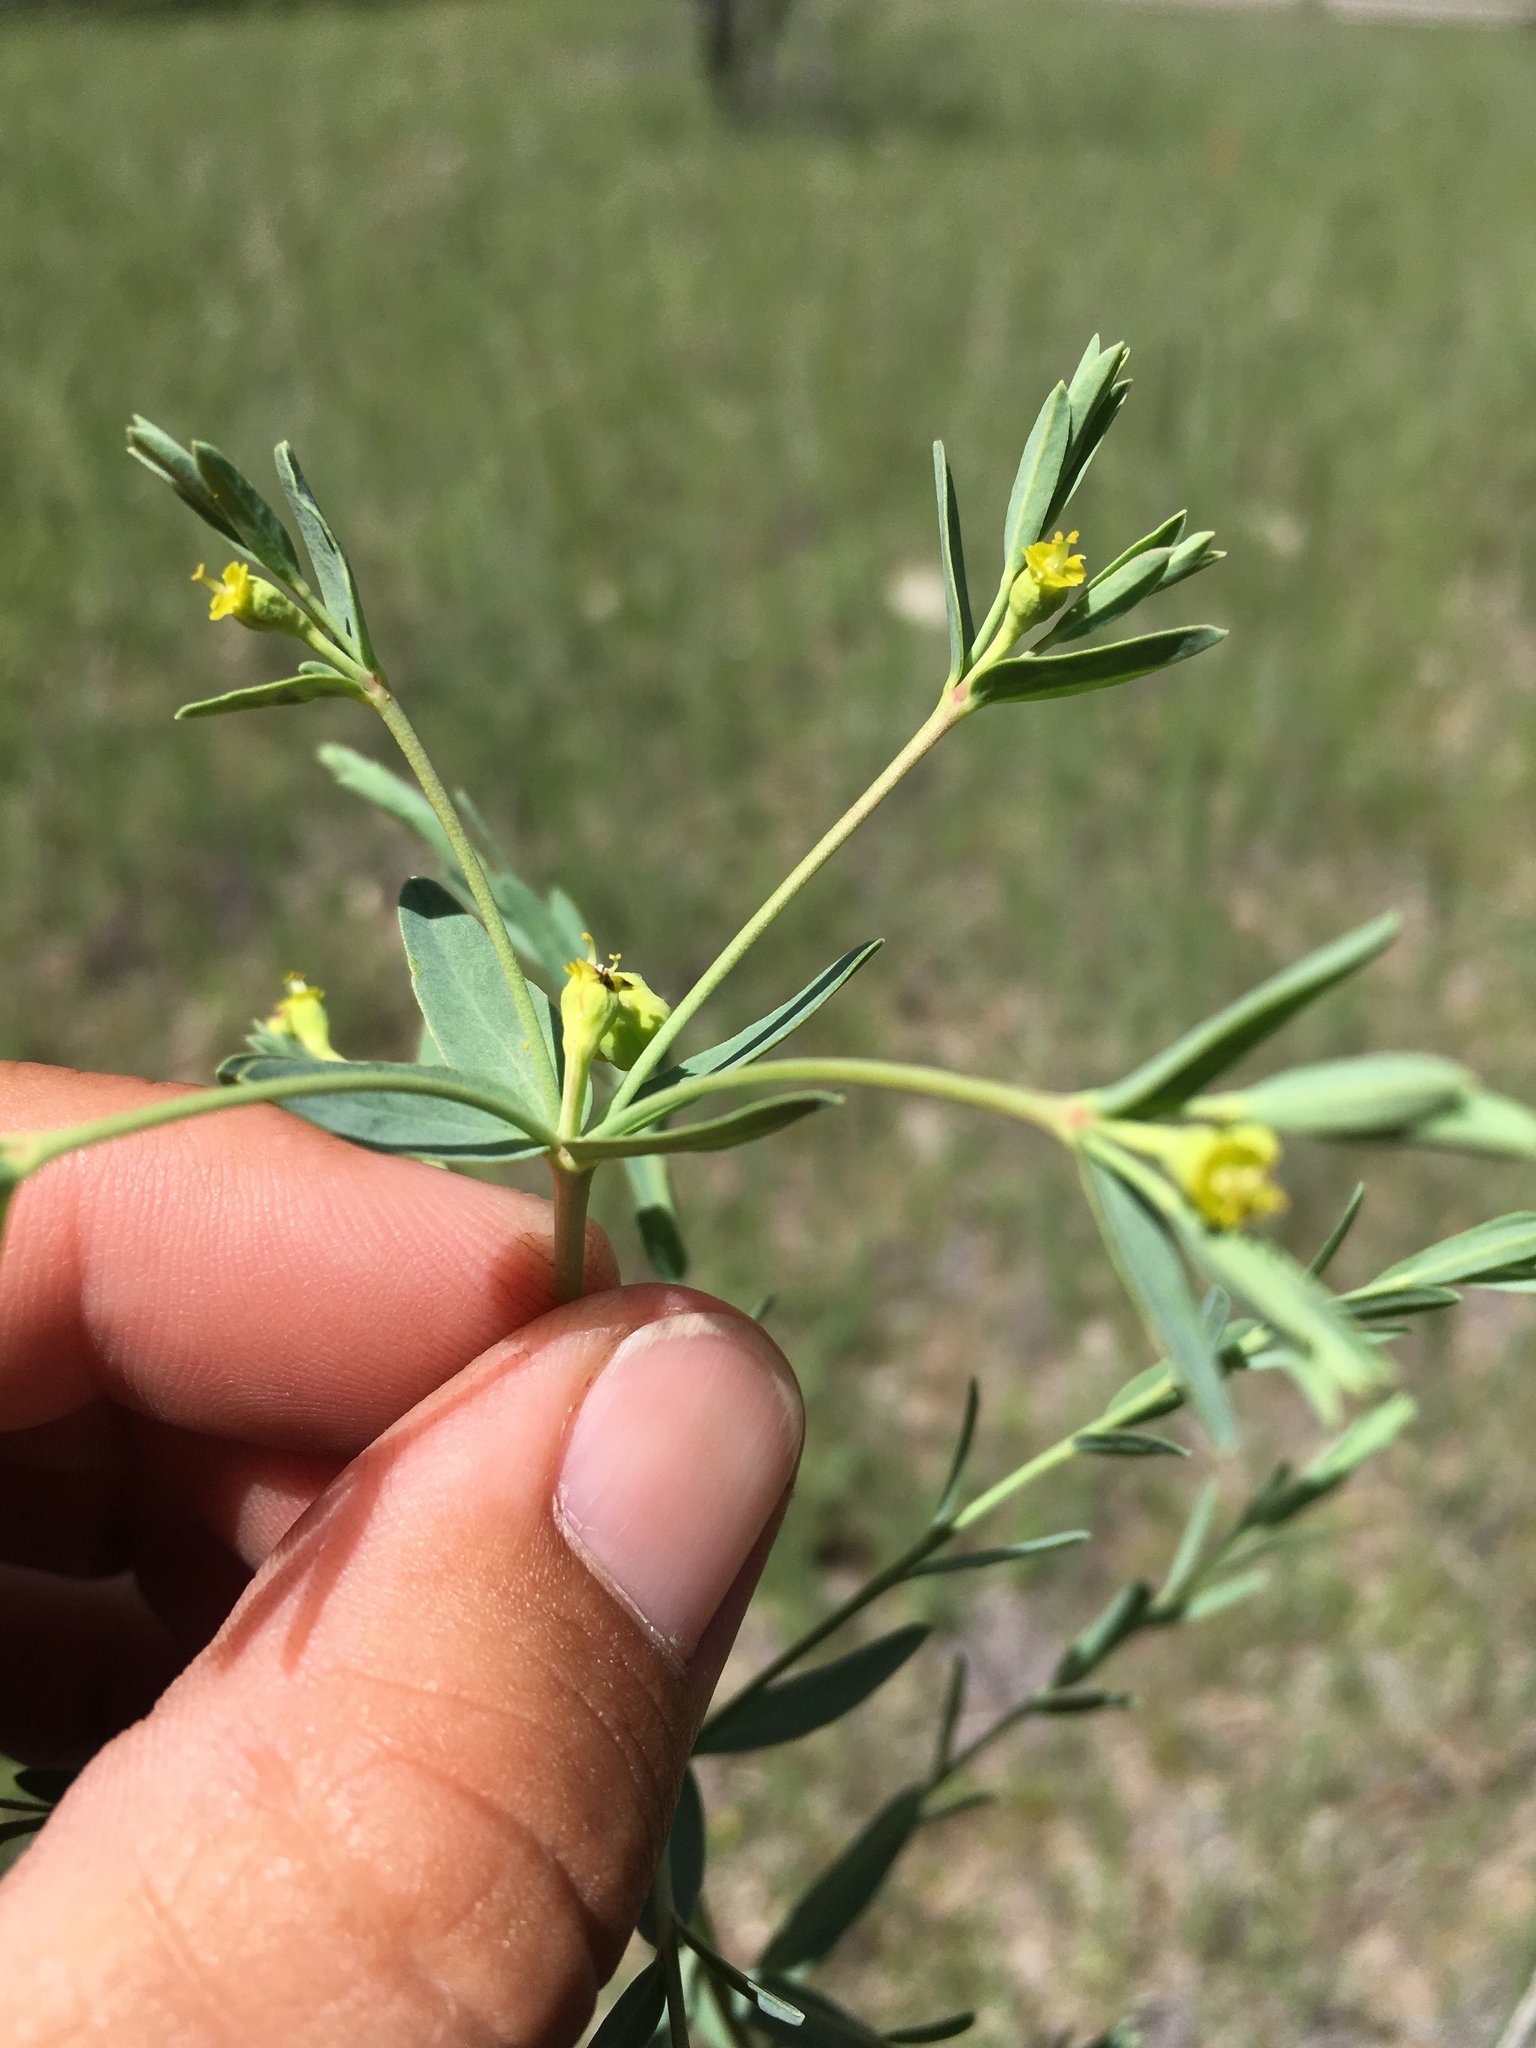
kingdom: Plantae
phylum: Tracheophyta
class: Magnoliopsida
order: Malpighiales
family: Euphorbiaceae
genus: Euphorbia
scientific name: Euphorbia chamaesula
